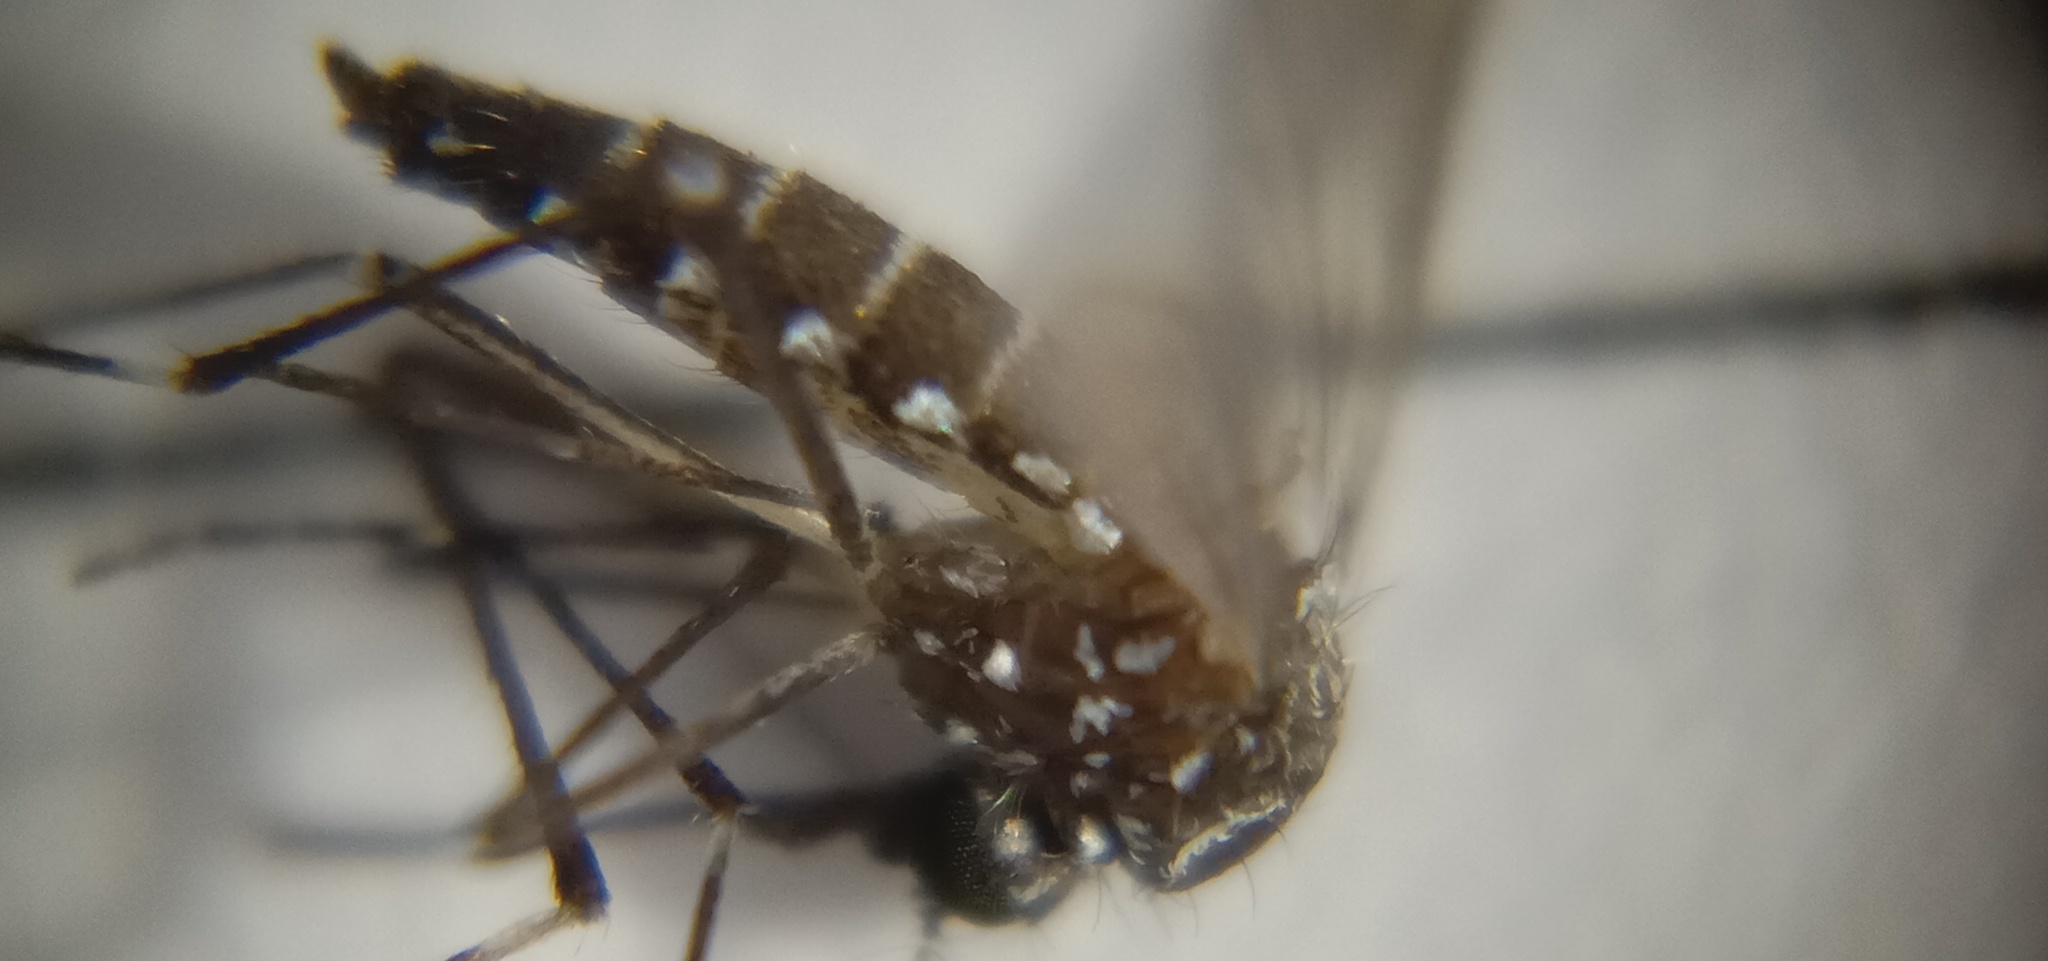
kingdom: Animalia
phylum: Arthropoda
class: Insecta
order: Diptera
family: Culicidae
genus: Aedes
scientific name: Aedes aegypti
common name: Yellow fever mosquito
